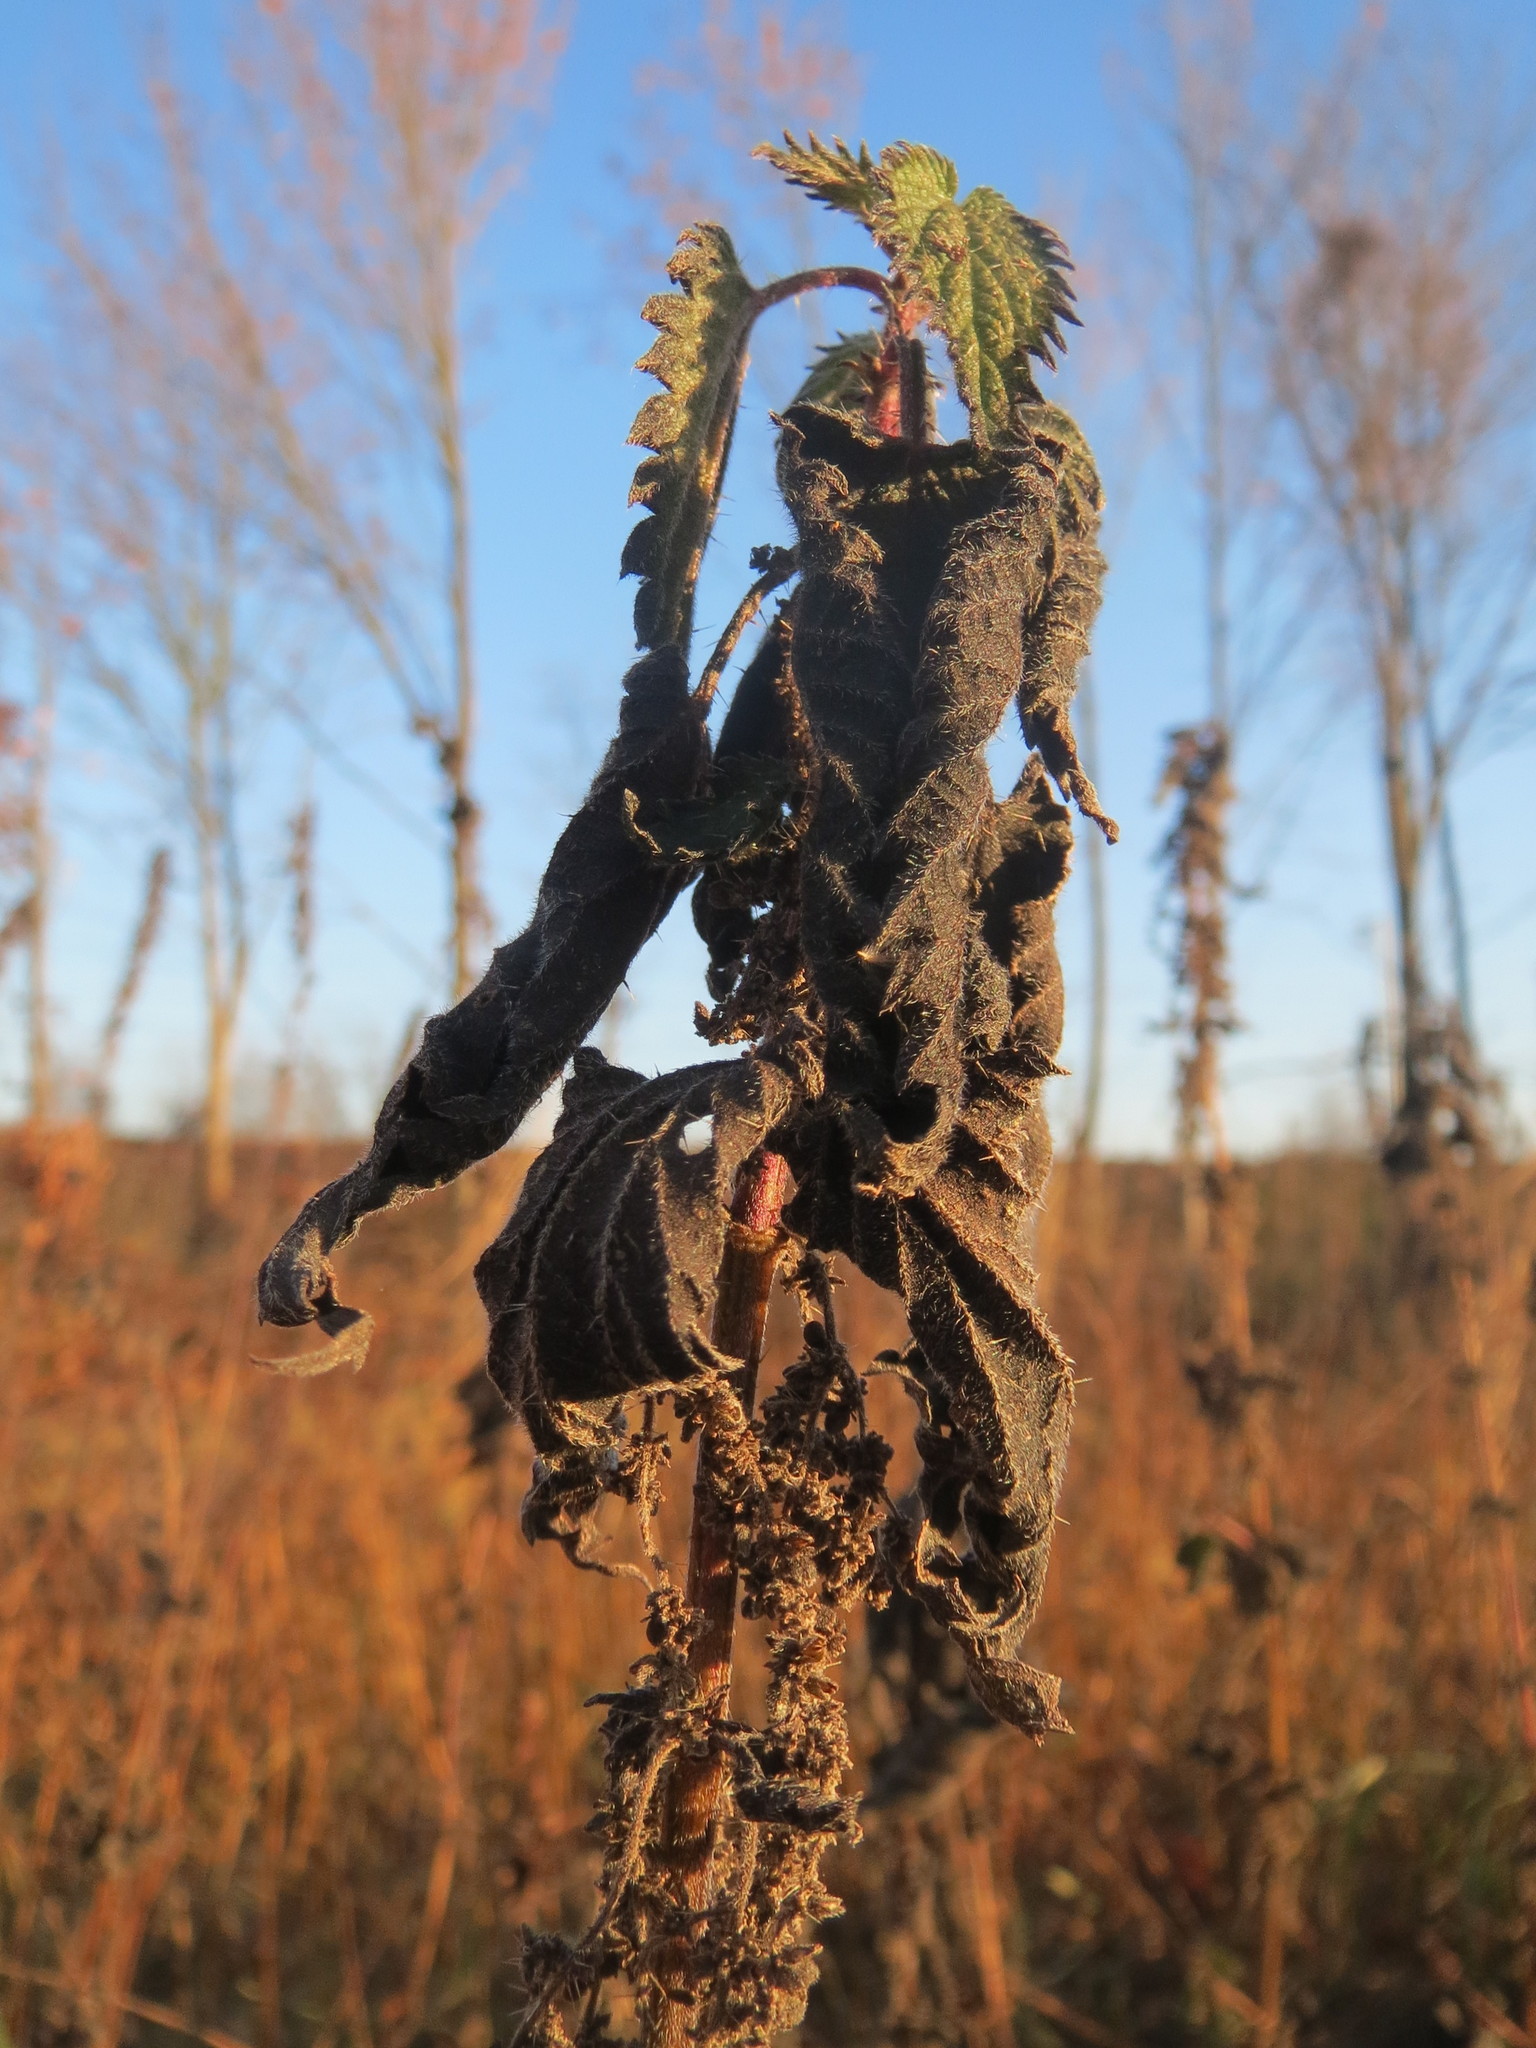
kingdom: Plantae
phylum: Tracheophyta
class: Magnoliopsida
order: Rosales
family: Urticaceae
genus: Urtica
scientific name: Urtica dioica
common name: Common nettle
